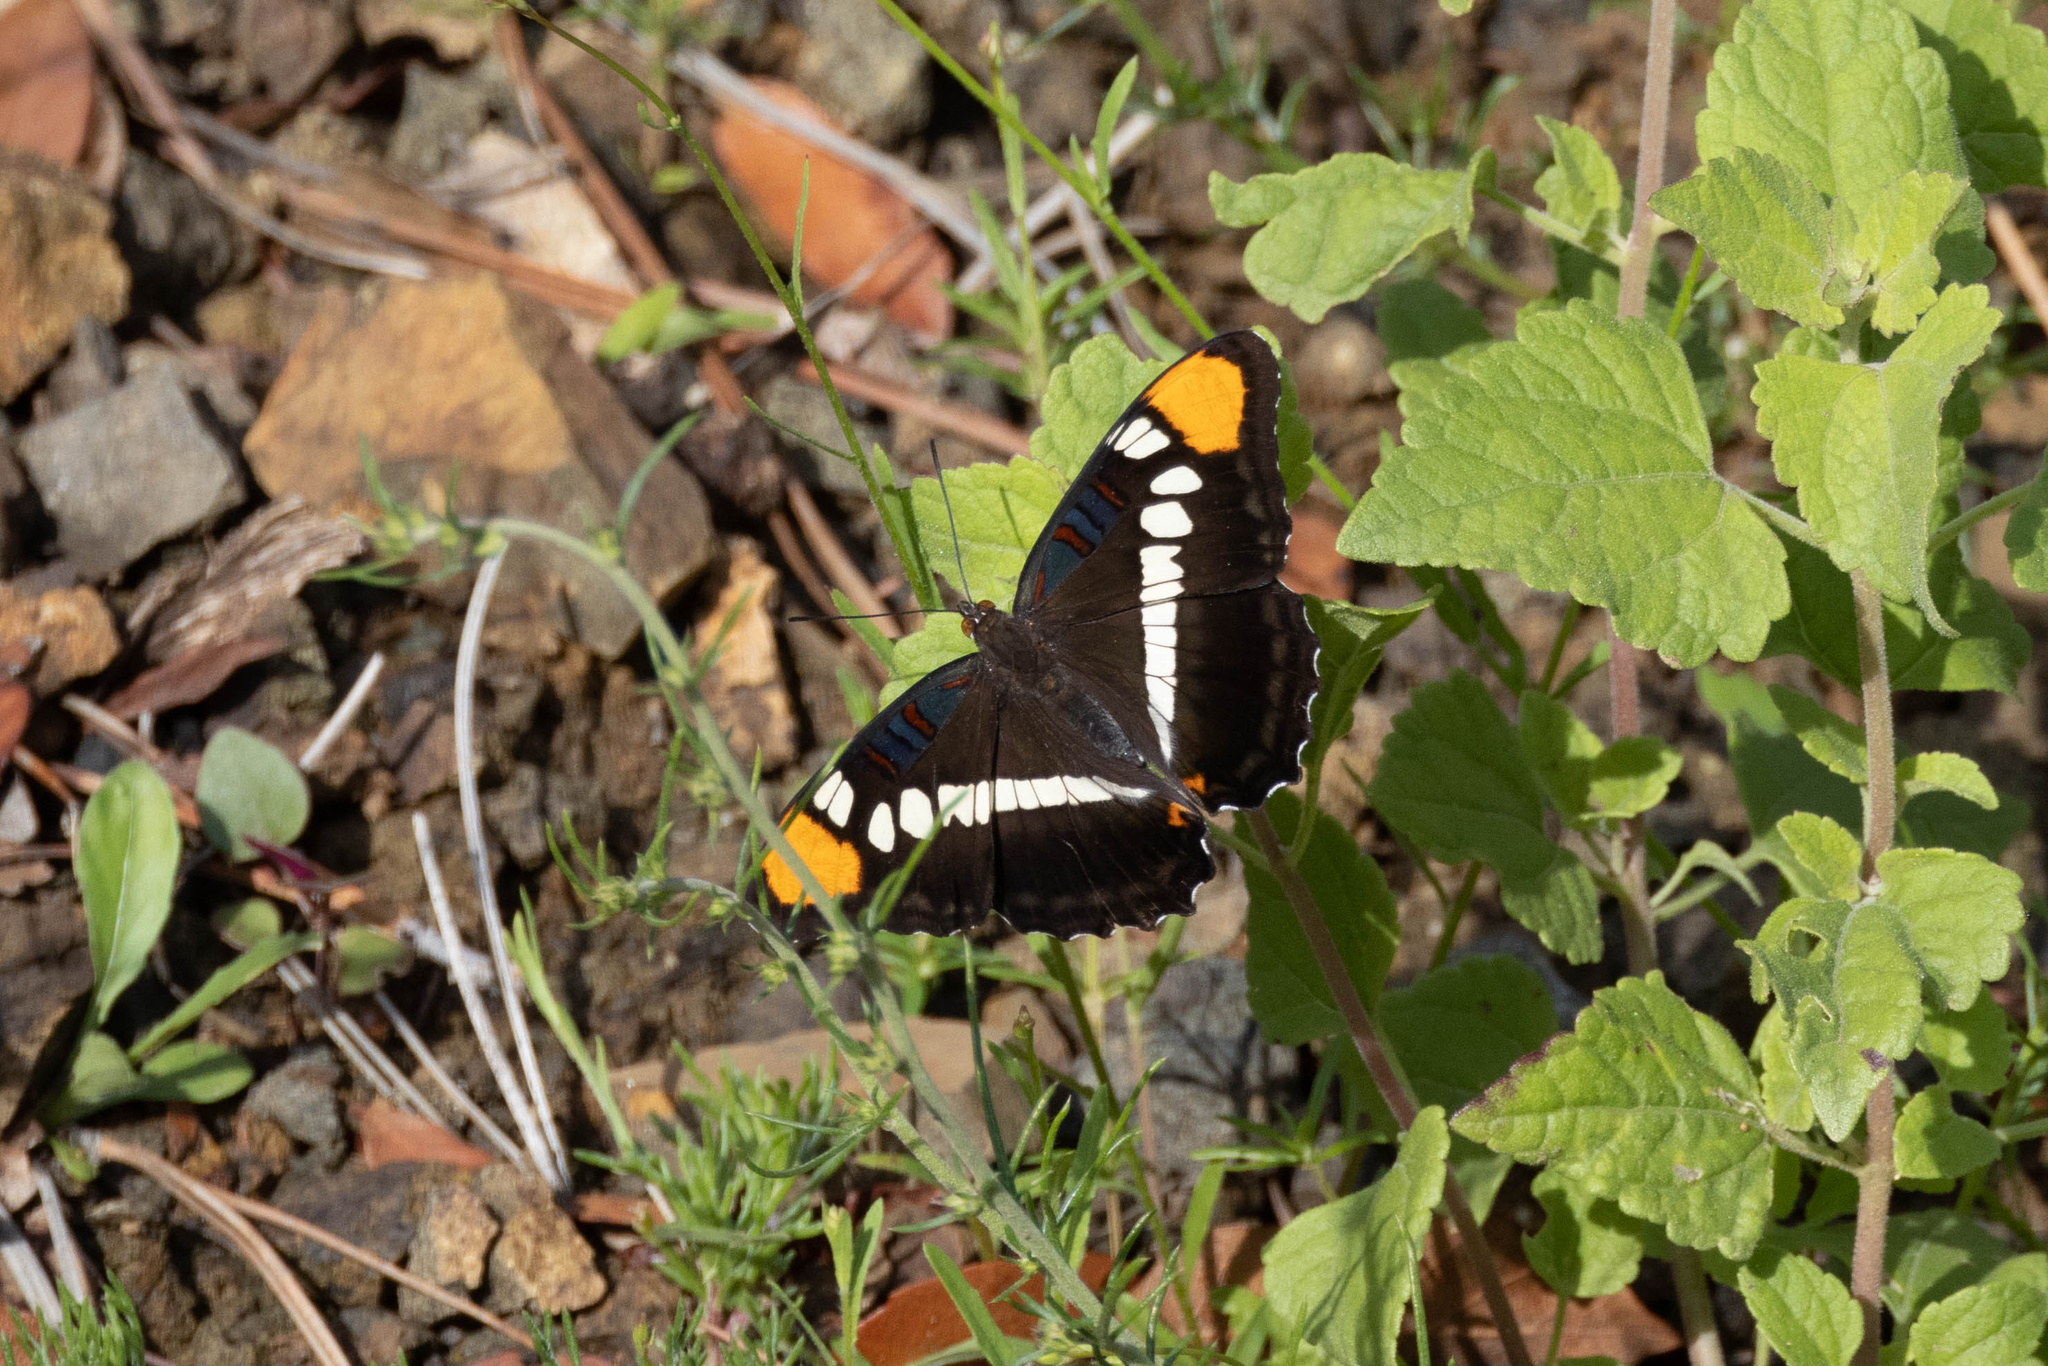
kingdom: Animalia
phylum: Arthropoda
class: Insecta
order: Lepidoptera
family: Nymphalidae
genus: Limenitis
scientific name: Limenitis bredowii
